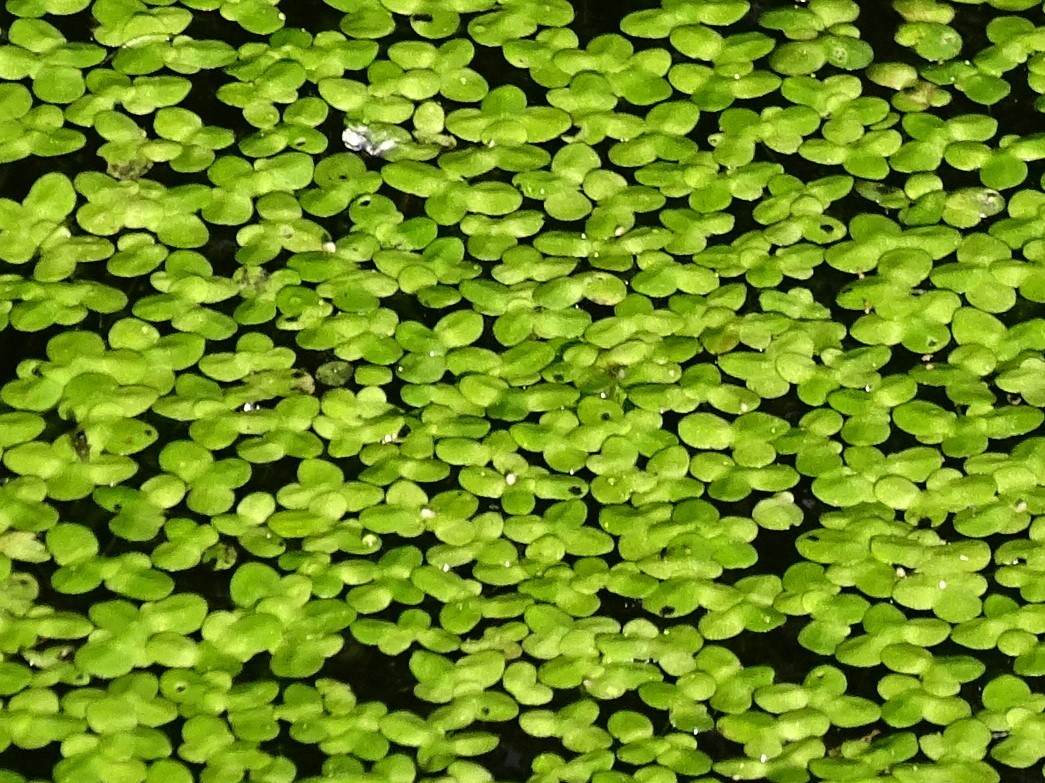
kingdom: Plantae
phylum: Tracheophyta
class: Liliopsida
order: Alismatales
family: Araceae
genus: Lemna
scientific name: Lemna minor
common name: Common duckweed
